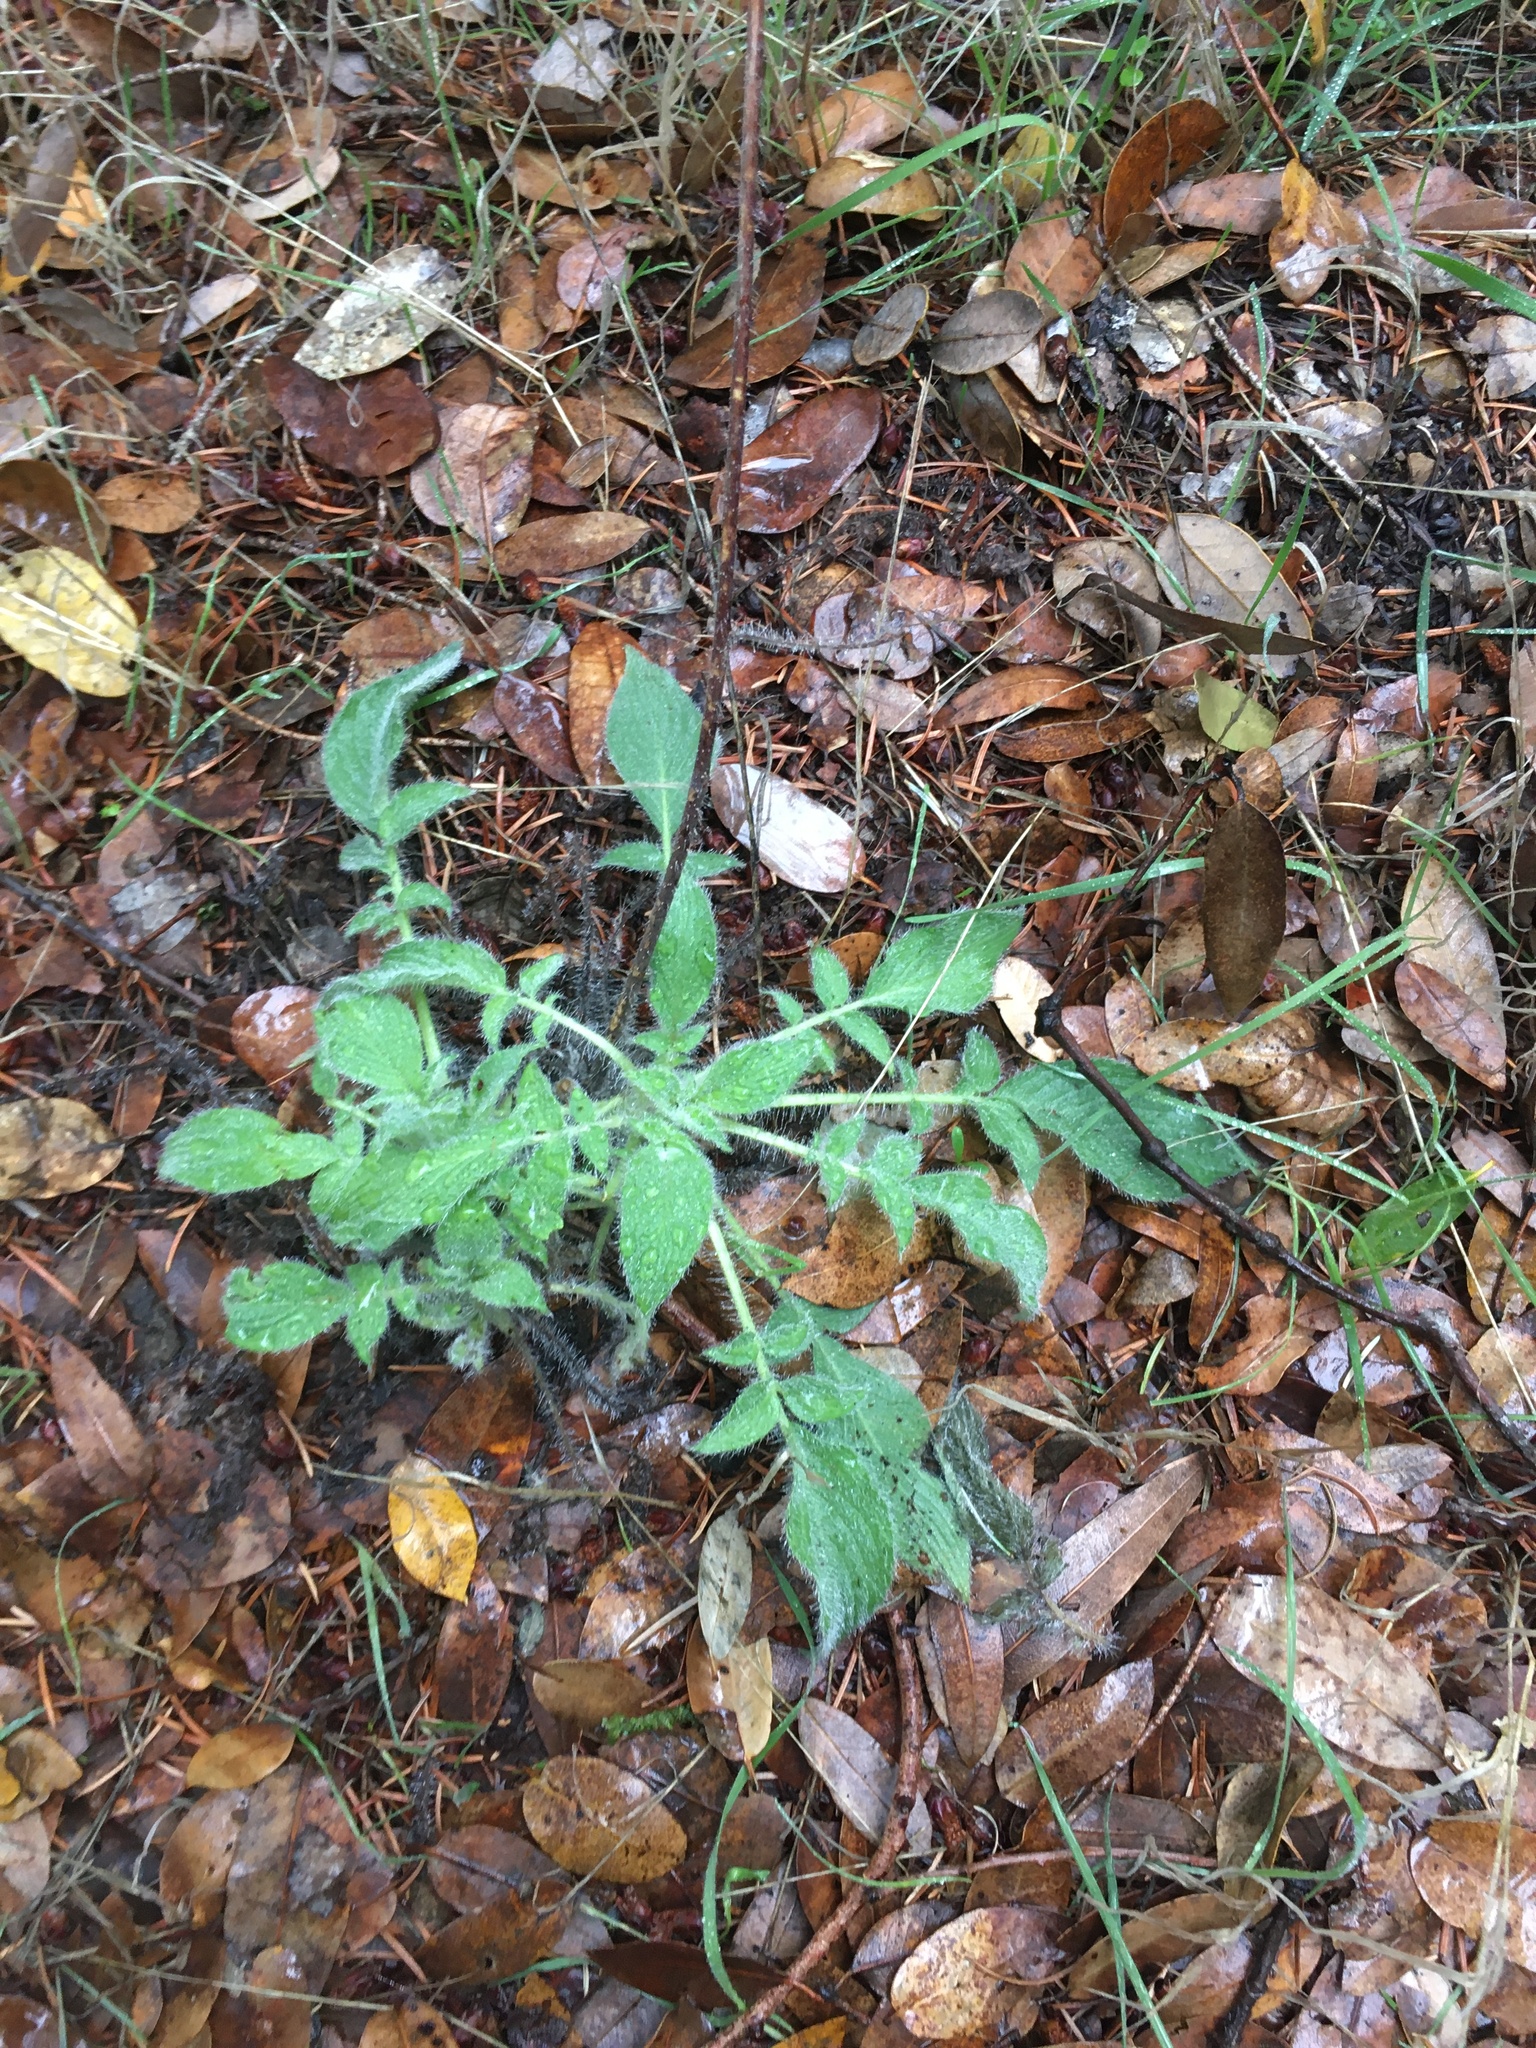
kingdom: Plantae
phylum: Tracheophyta
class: Magnoliopsida
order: Boraginales
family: Hydrophyllaceae
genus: Phacelia
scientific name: Phacelia imbricata
